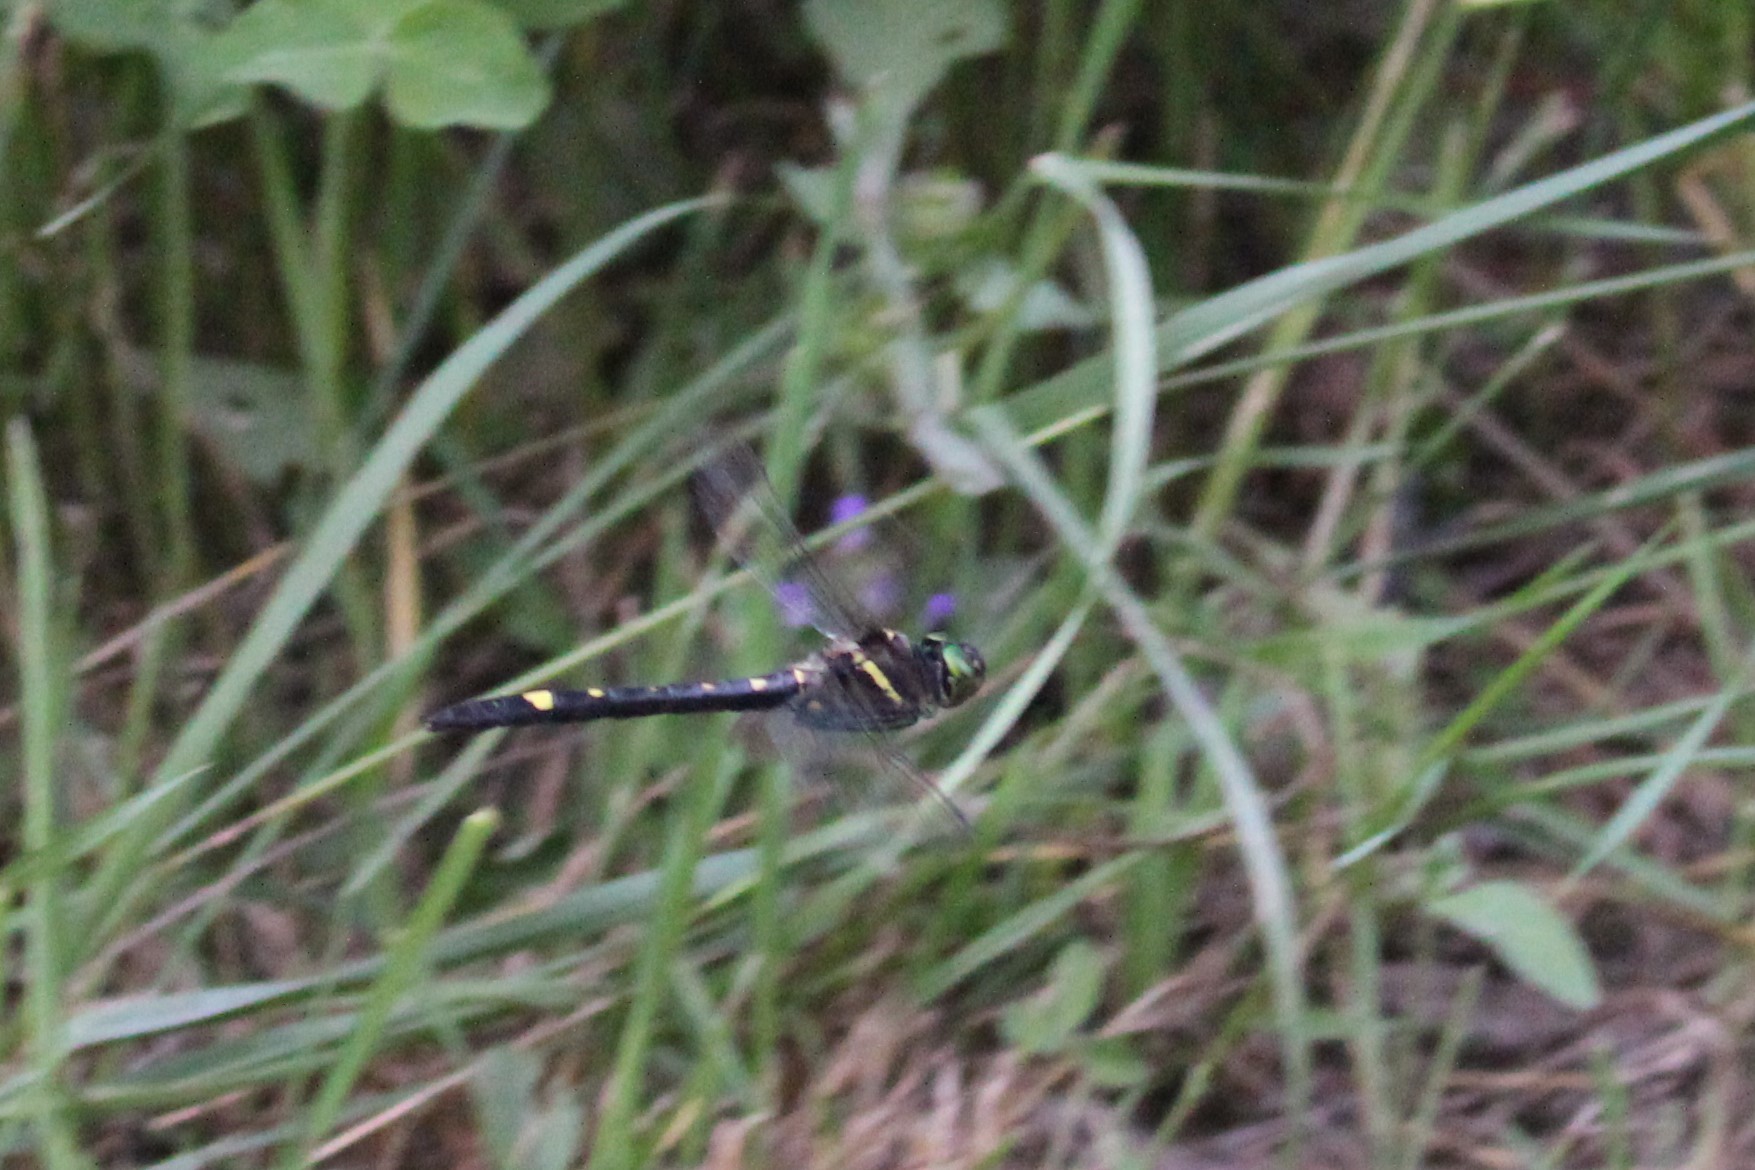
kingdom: Animalia
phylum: Arthropoda
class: Insecta
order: Odonata
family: Macromiidae
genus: Macromia
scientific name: Macromia illinoiensis
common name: Swift river cruiser
